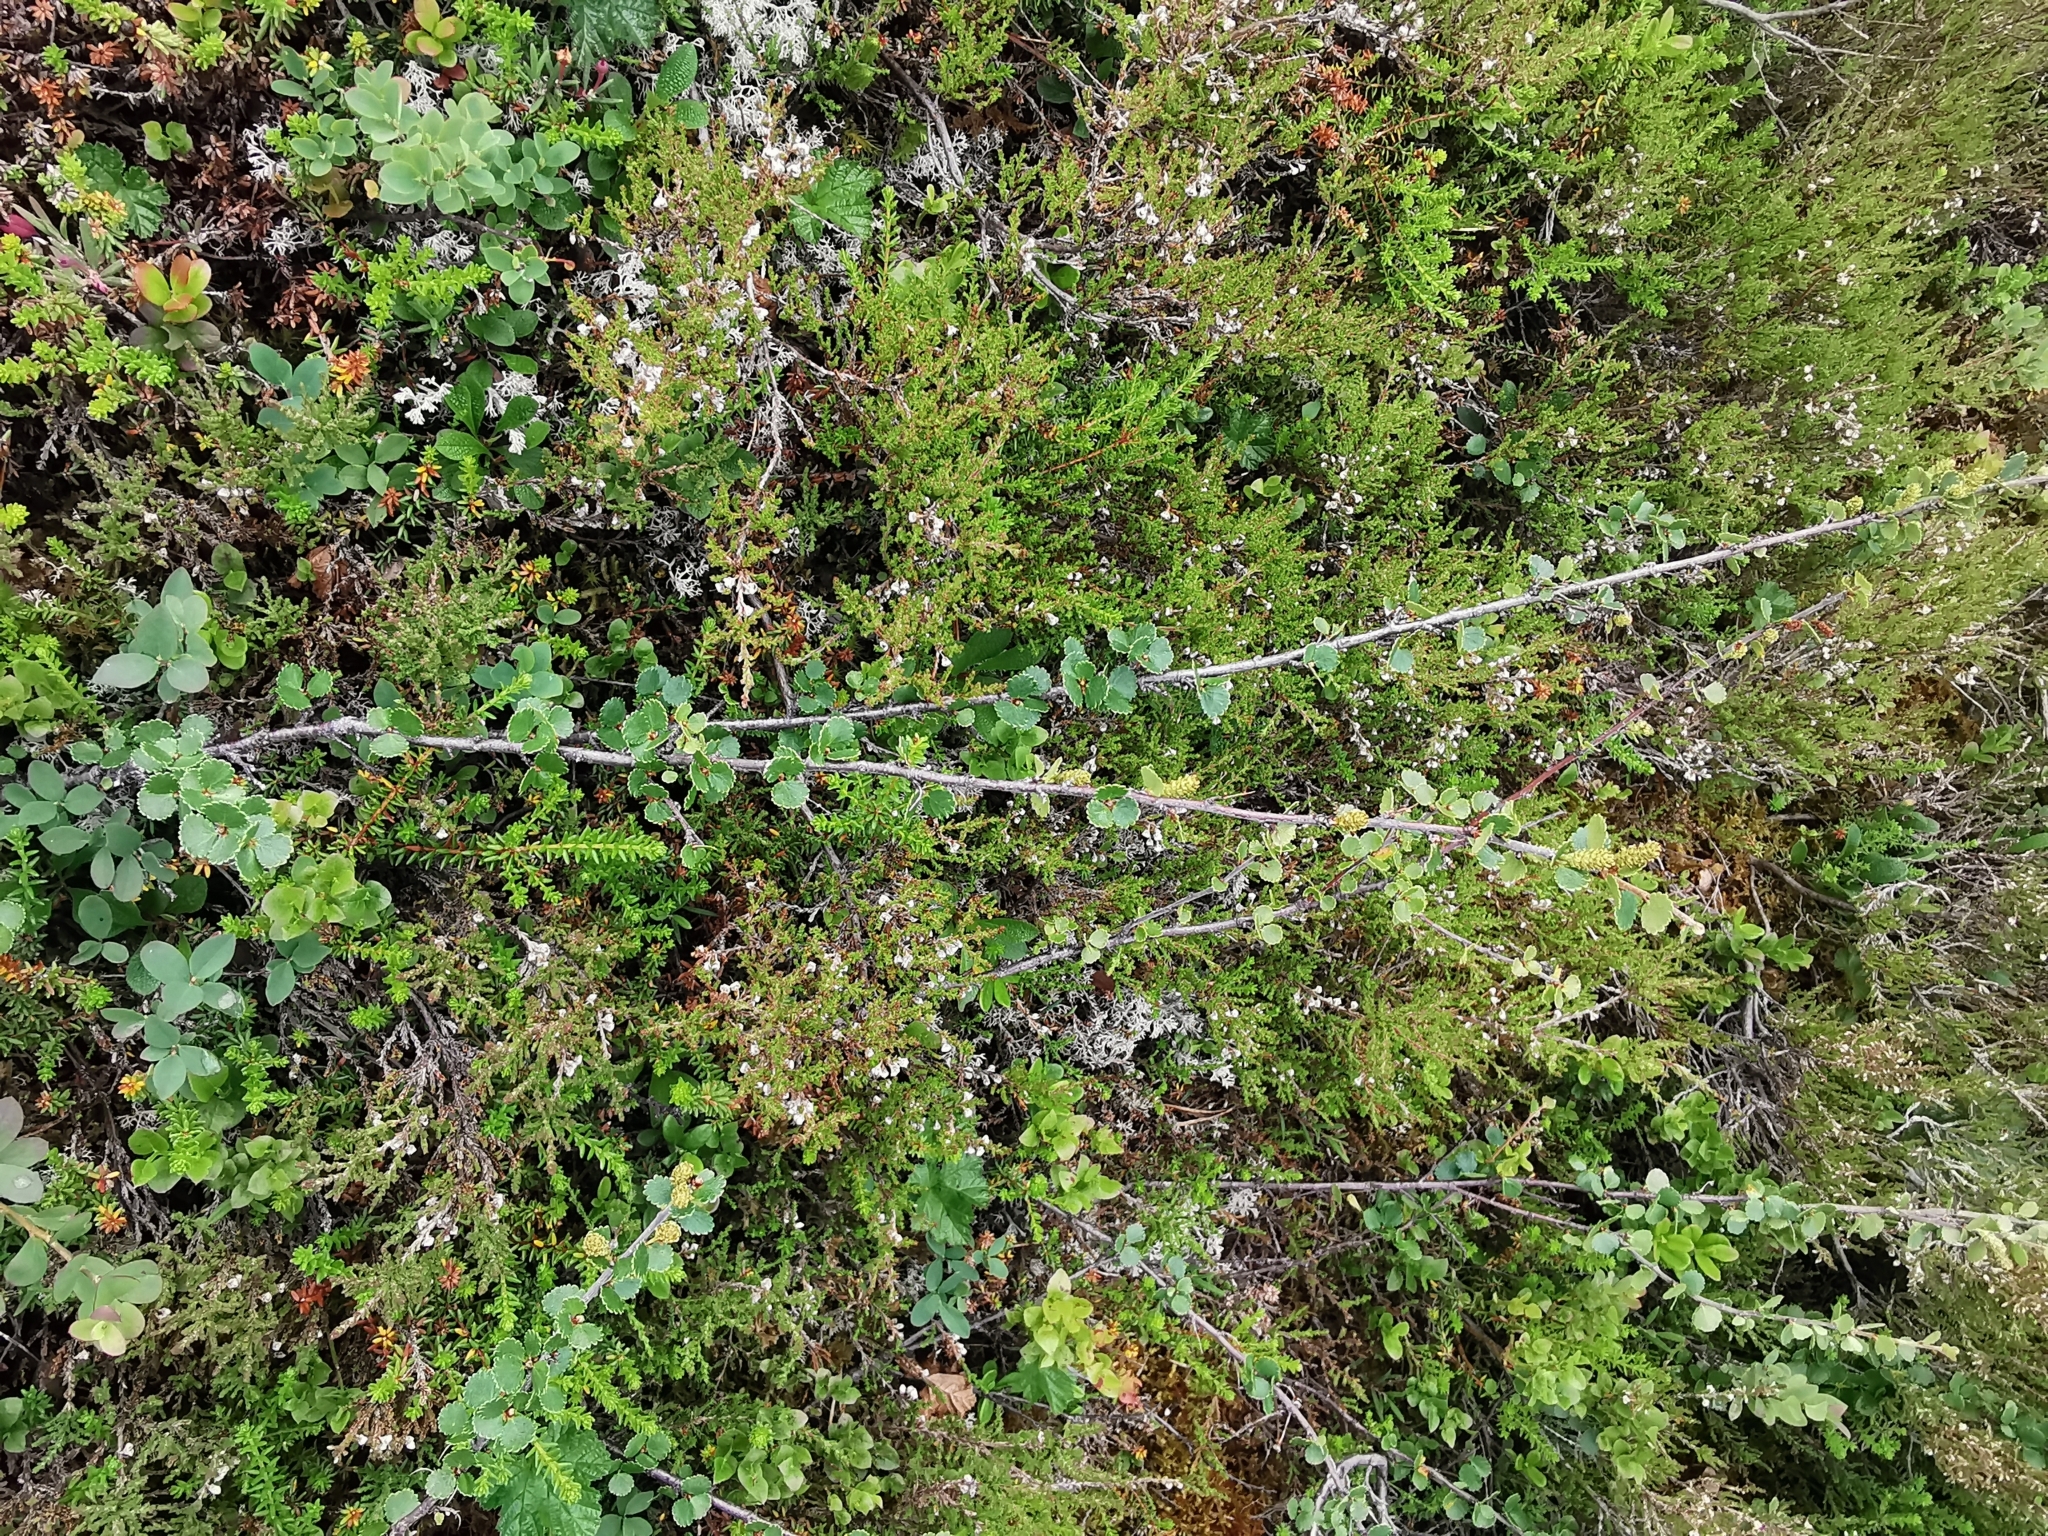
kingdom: Plantae
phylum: Tracheophyta
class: Magnoliopsida
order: Fagales
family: Betulaceae
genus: Betula
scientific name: Betula nana
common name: Arctic dwarf birch
